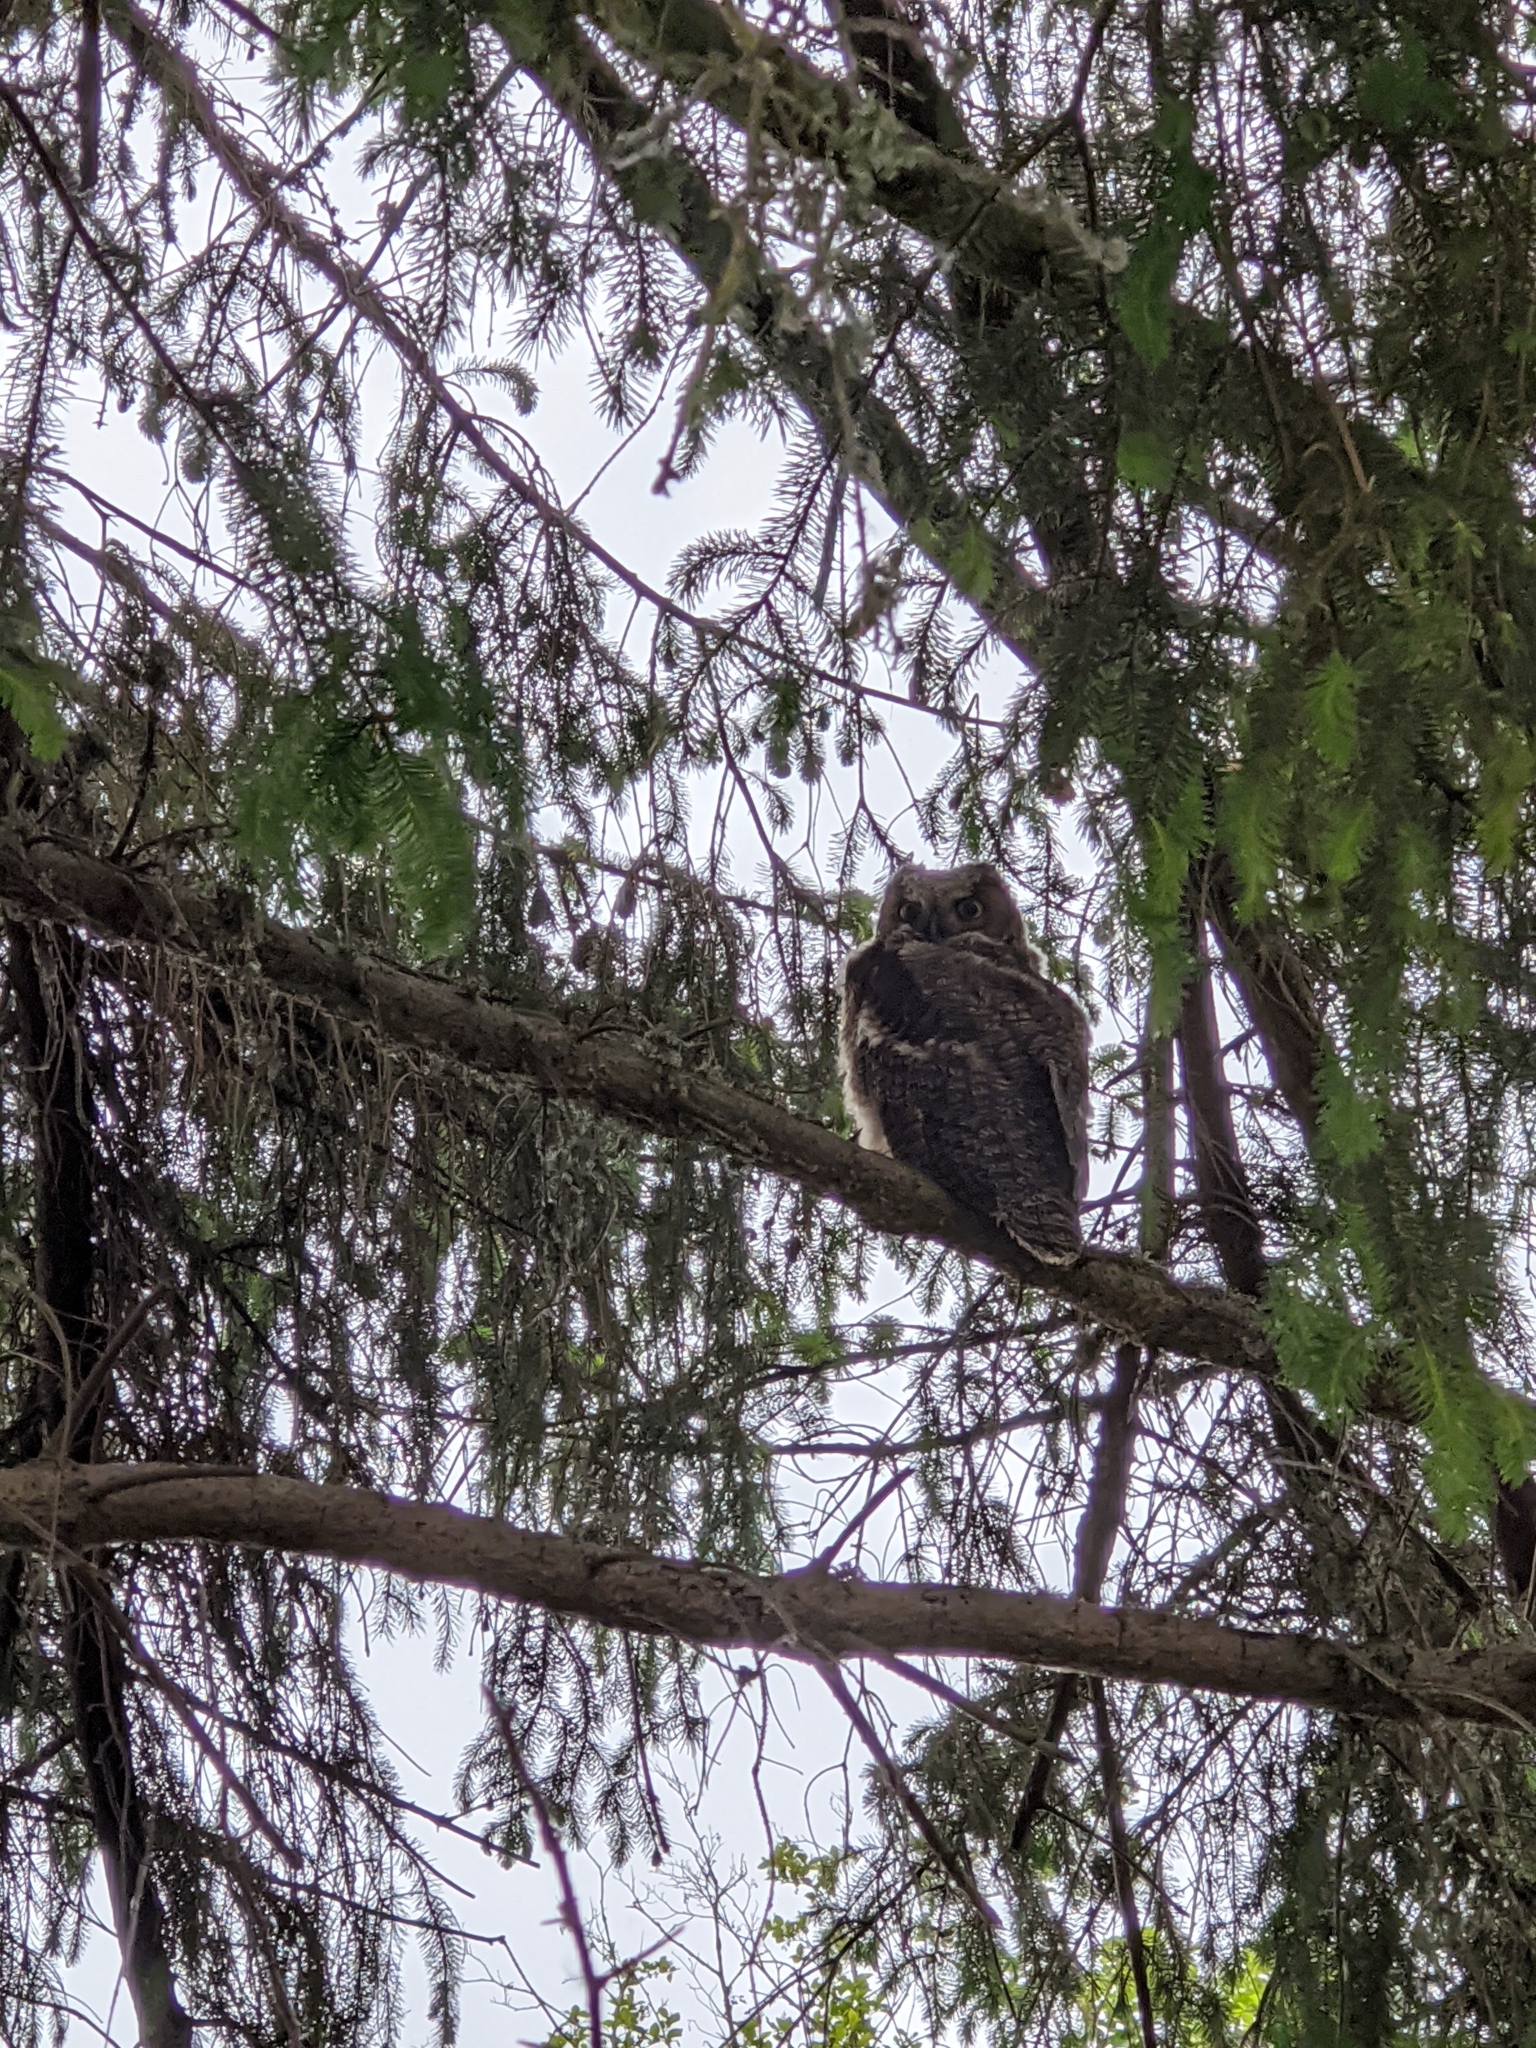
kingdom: Animalia
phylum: Chordata
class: Aves
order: Strigiformes
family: Strigidae
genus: Bubo
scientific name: Bubo virginianus
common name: Great horned owl
